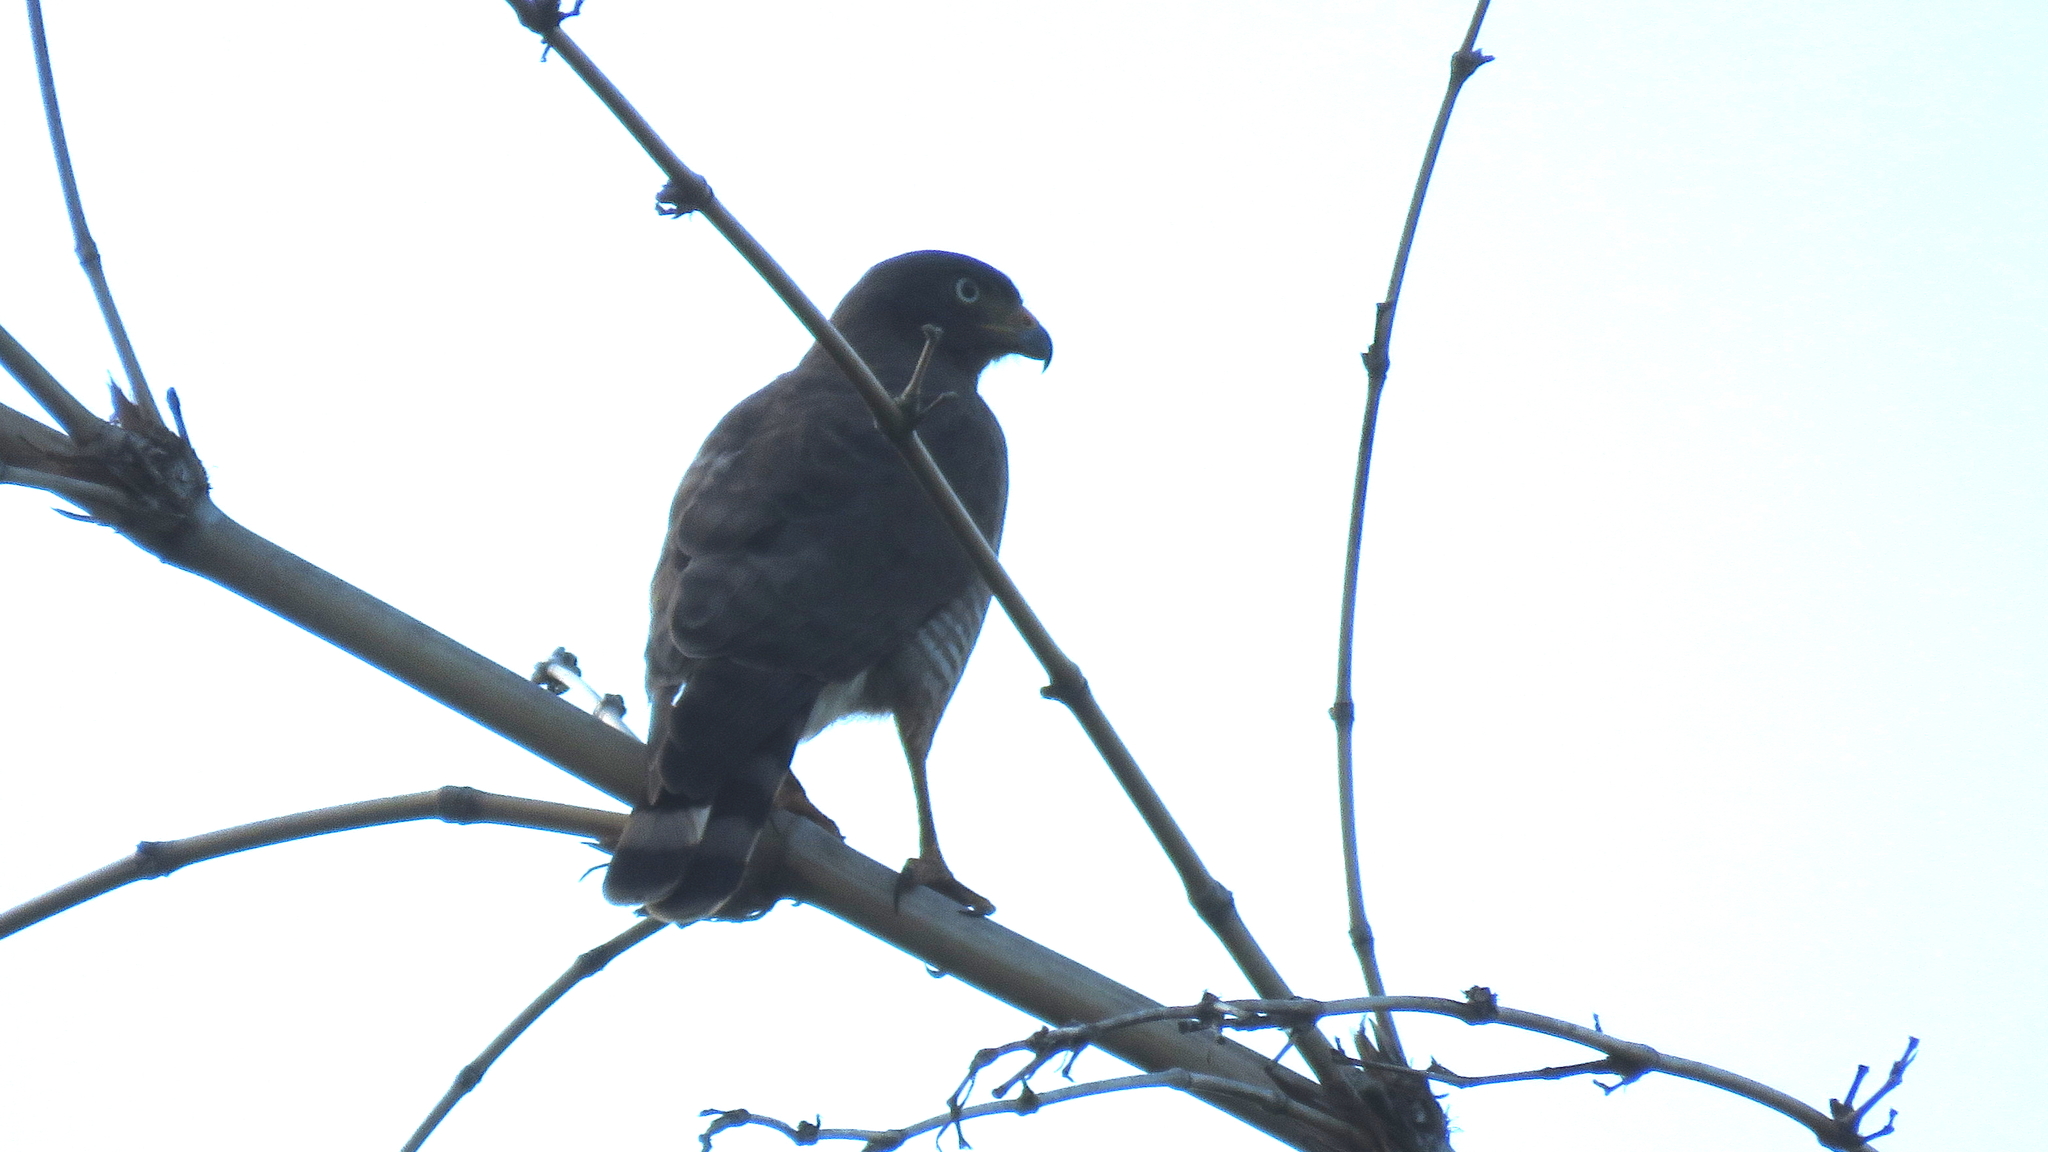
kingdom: Animalia
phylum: Chordata
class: Aves
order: Accipitriformes
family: Accipitridae
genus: Rupornis
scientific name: Rupornis magnirostris
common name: Roadside hawk
